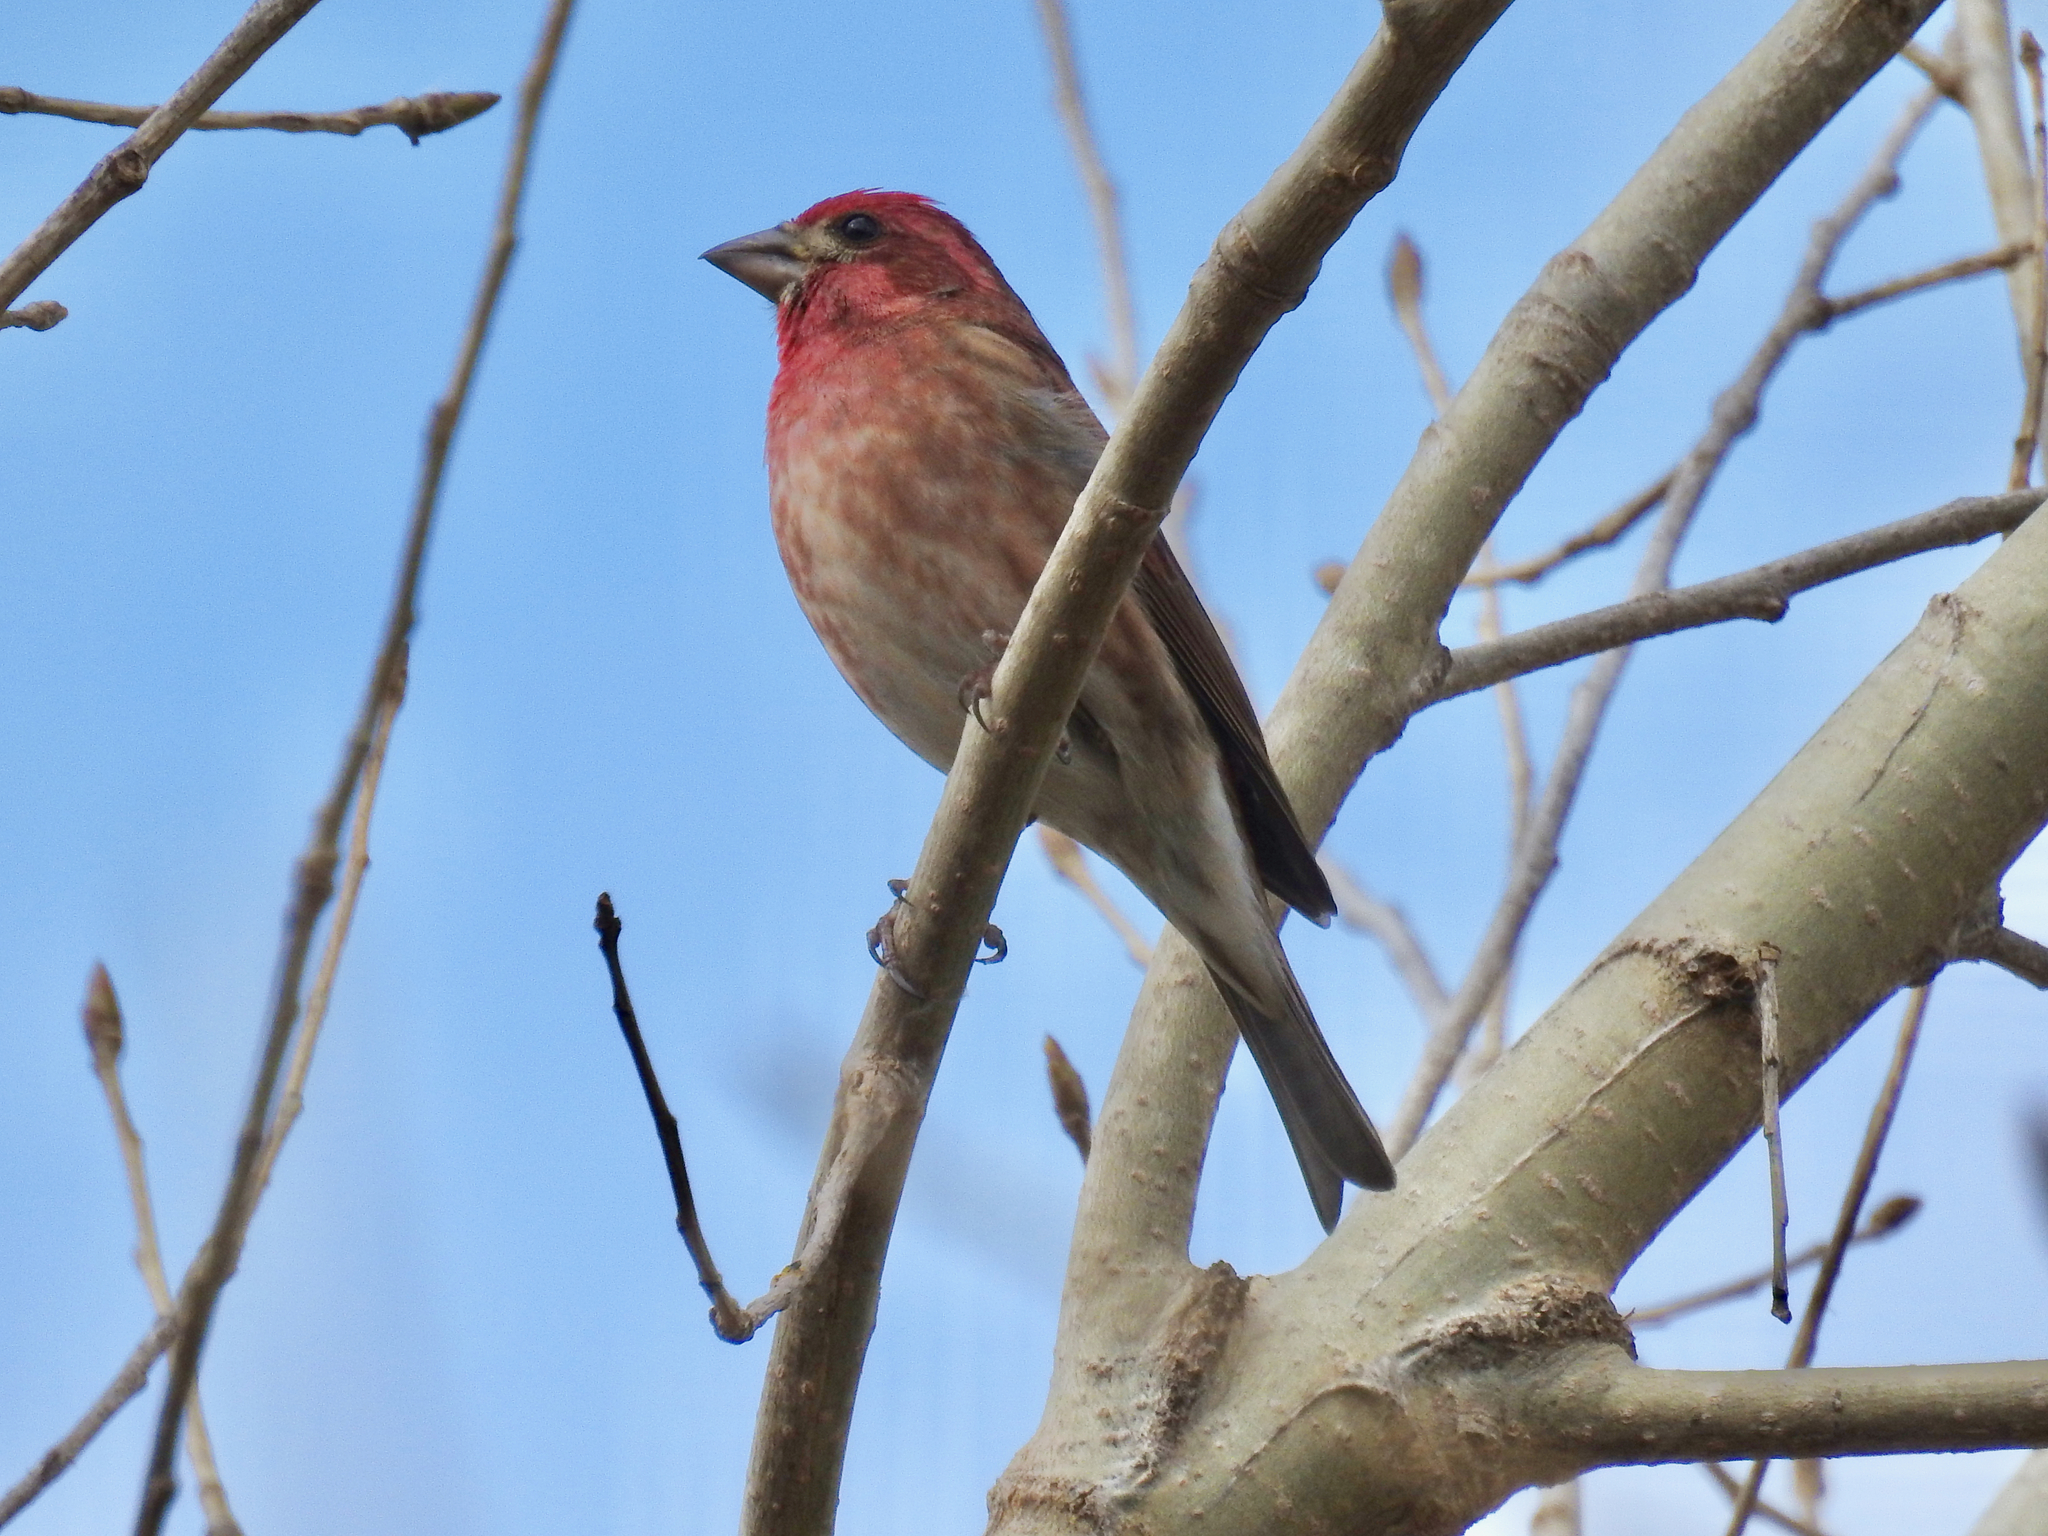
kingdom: Animalia
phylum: Chordata
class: Aves
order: Passeriformes
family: Fringillidae
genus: Haemorhous
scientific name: Haemorhous purpureus
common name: Purple finch
